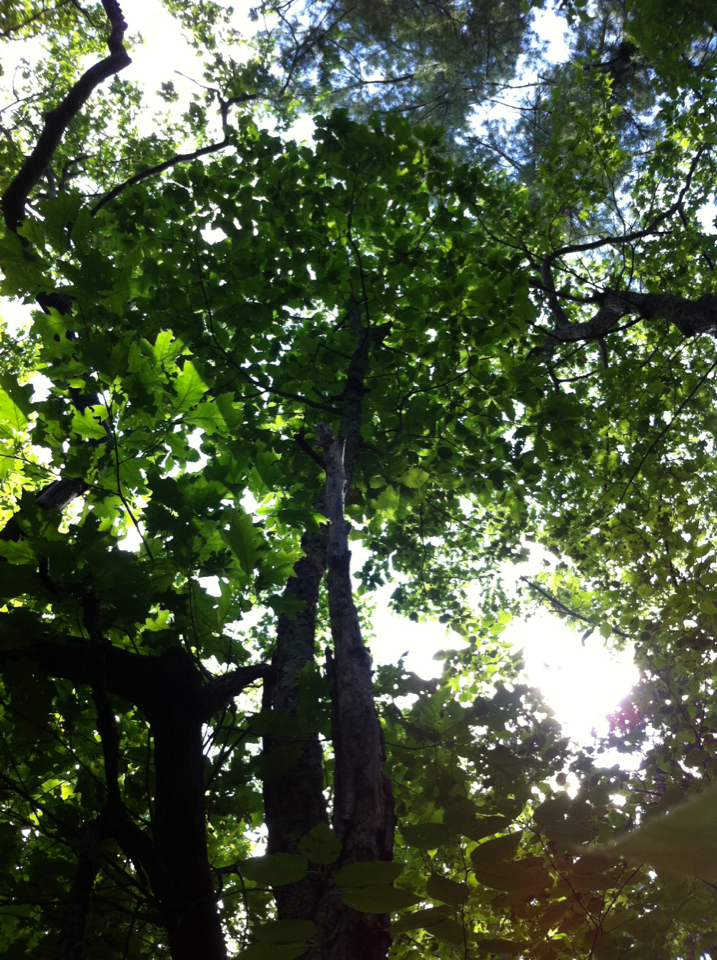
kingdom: Plantae
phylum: Tracheophyta
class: Magnoliopsida
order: Fagales
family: Fagaceae
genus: Quercus
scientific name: Quercus montana
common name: Chestnut oak
